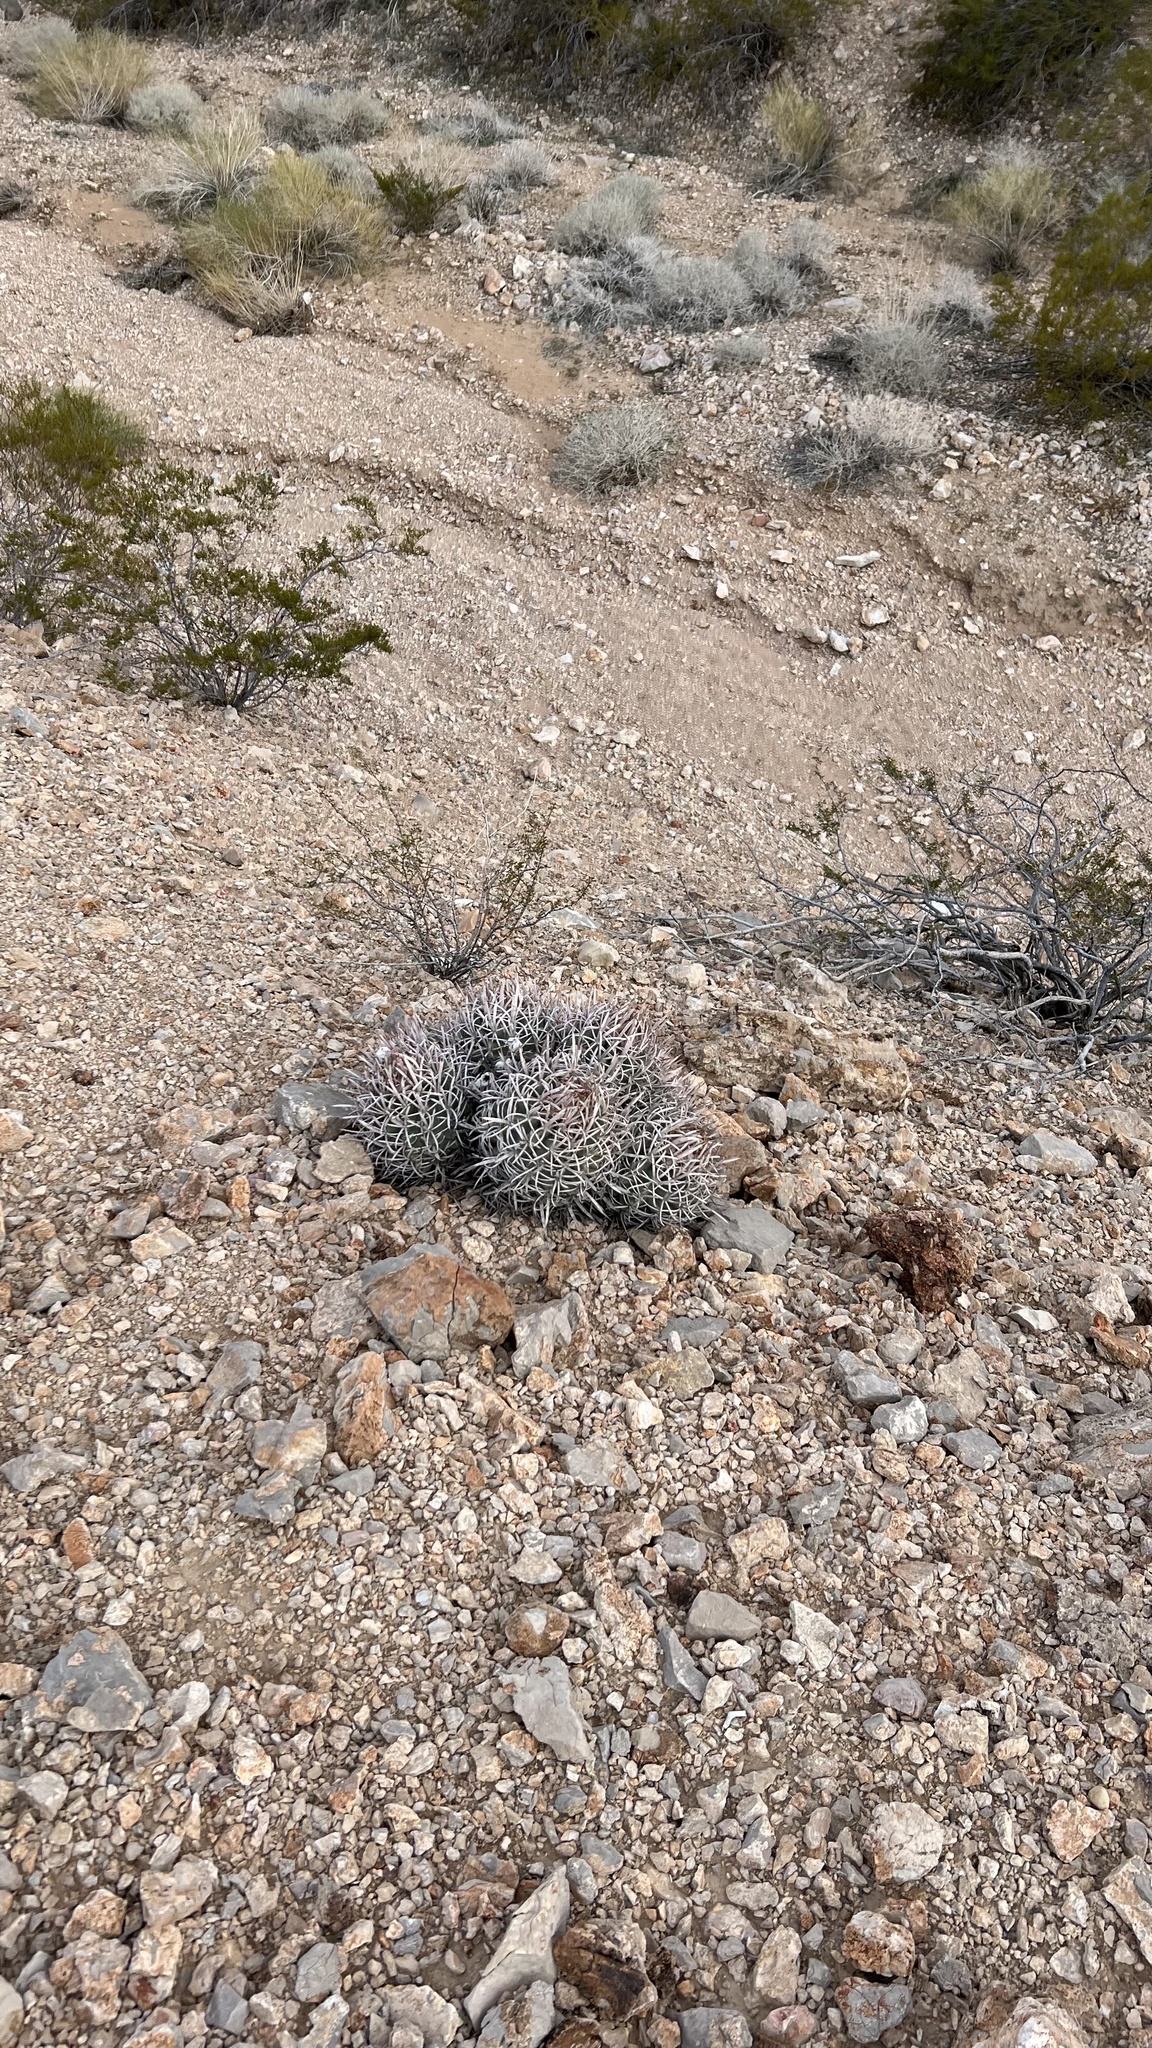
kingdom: Plantae
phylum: Tracheophyta
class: Magnoliopsida
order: Caryophyllales
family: Cactaceae
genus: Echinocactus
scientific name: Echinocactus polycephalus
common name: Cottontop cactus
